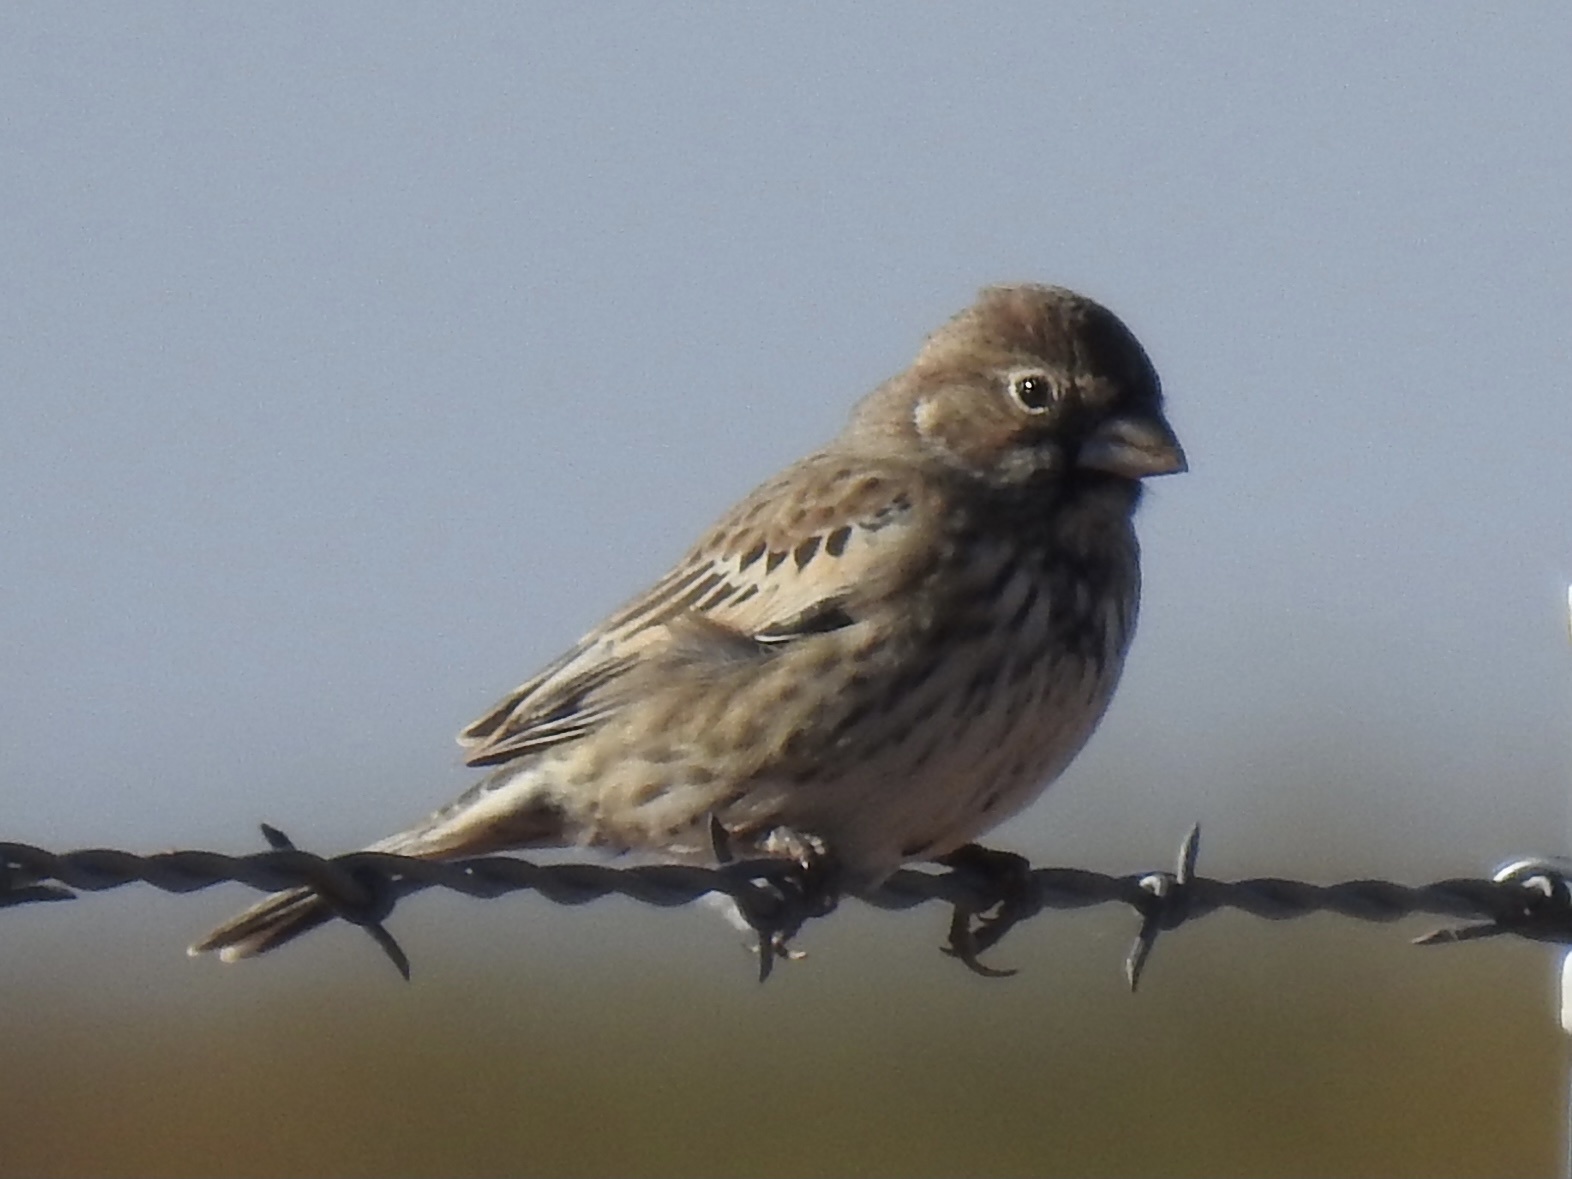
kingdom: Animalia
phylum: Chordata
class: Aves
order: Passeriformes
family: Passerellidae
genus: Calamospiza
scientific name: Calamospiza melanocorys
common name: Lark bunting
